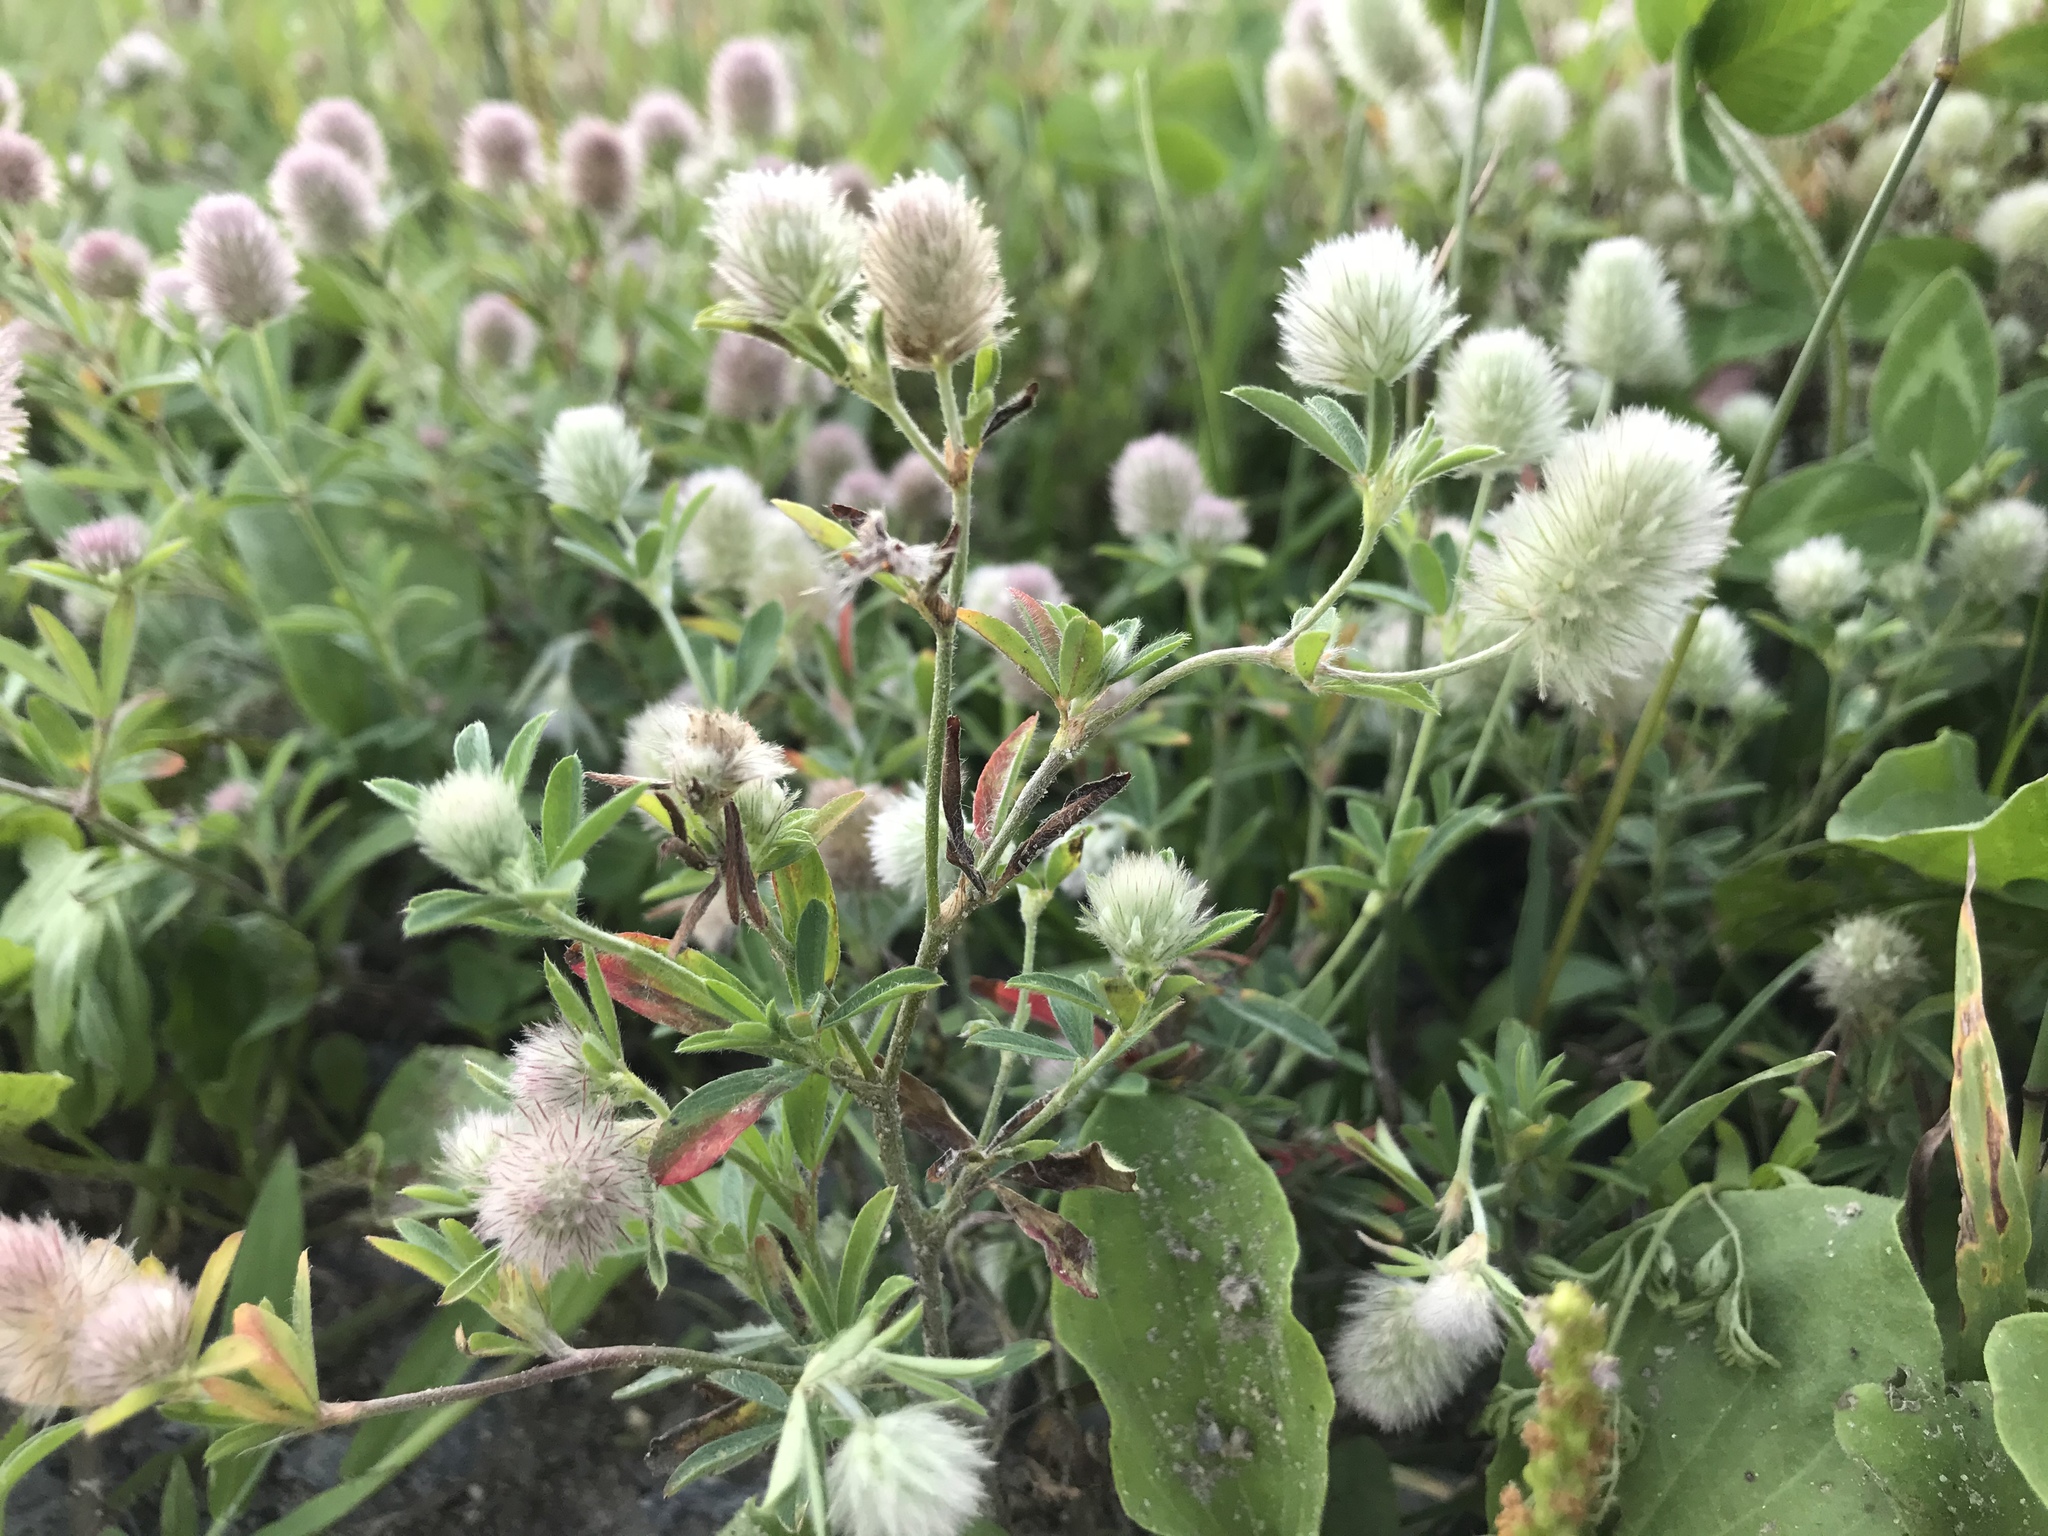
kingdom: Plantae
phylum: Tracheophyta
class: Magnoliopsida
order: Fabales
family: Fabaceae
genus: Trifolium
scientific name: Trifolium arvense
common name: Hare's-foot clover
